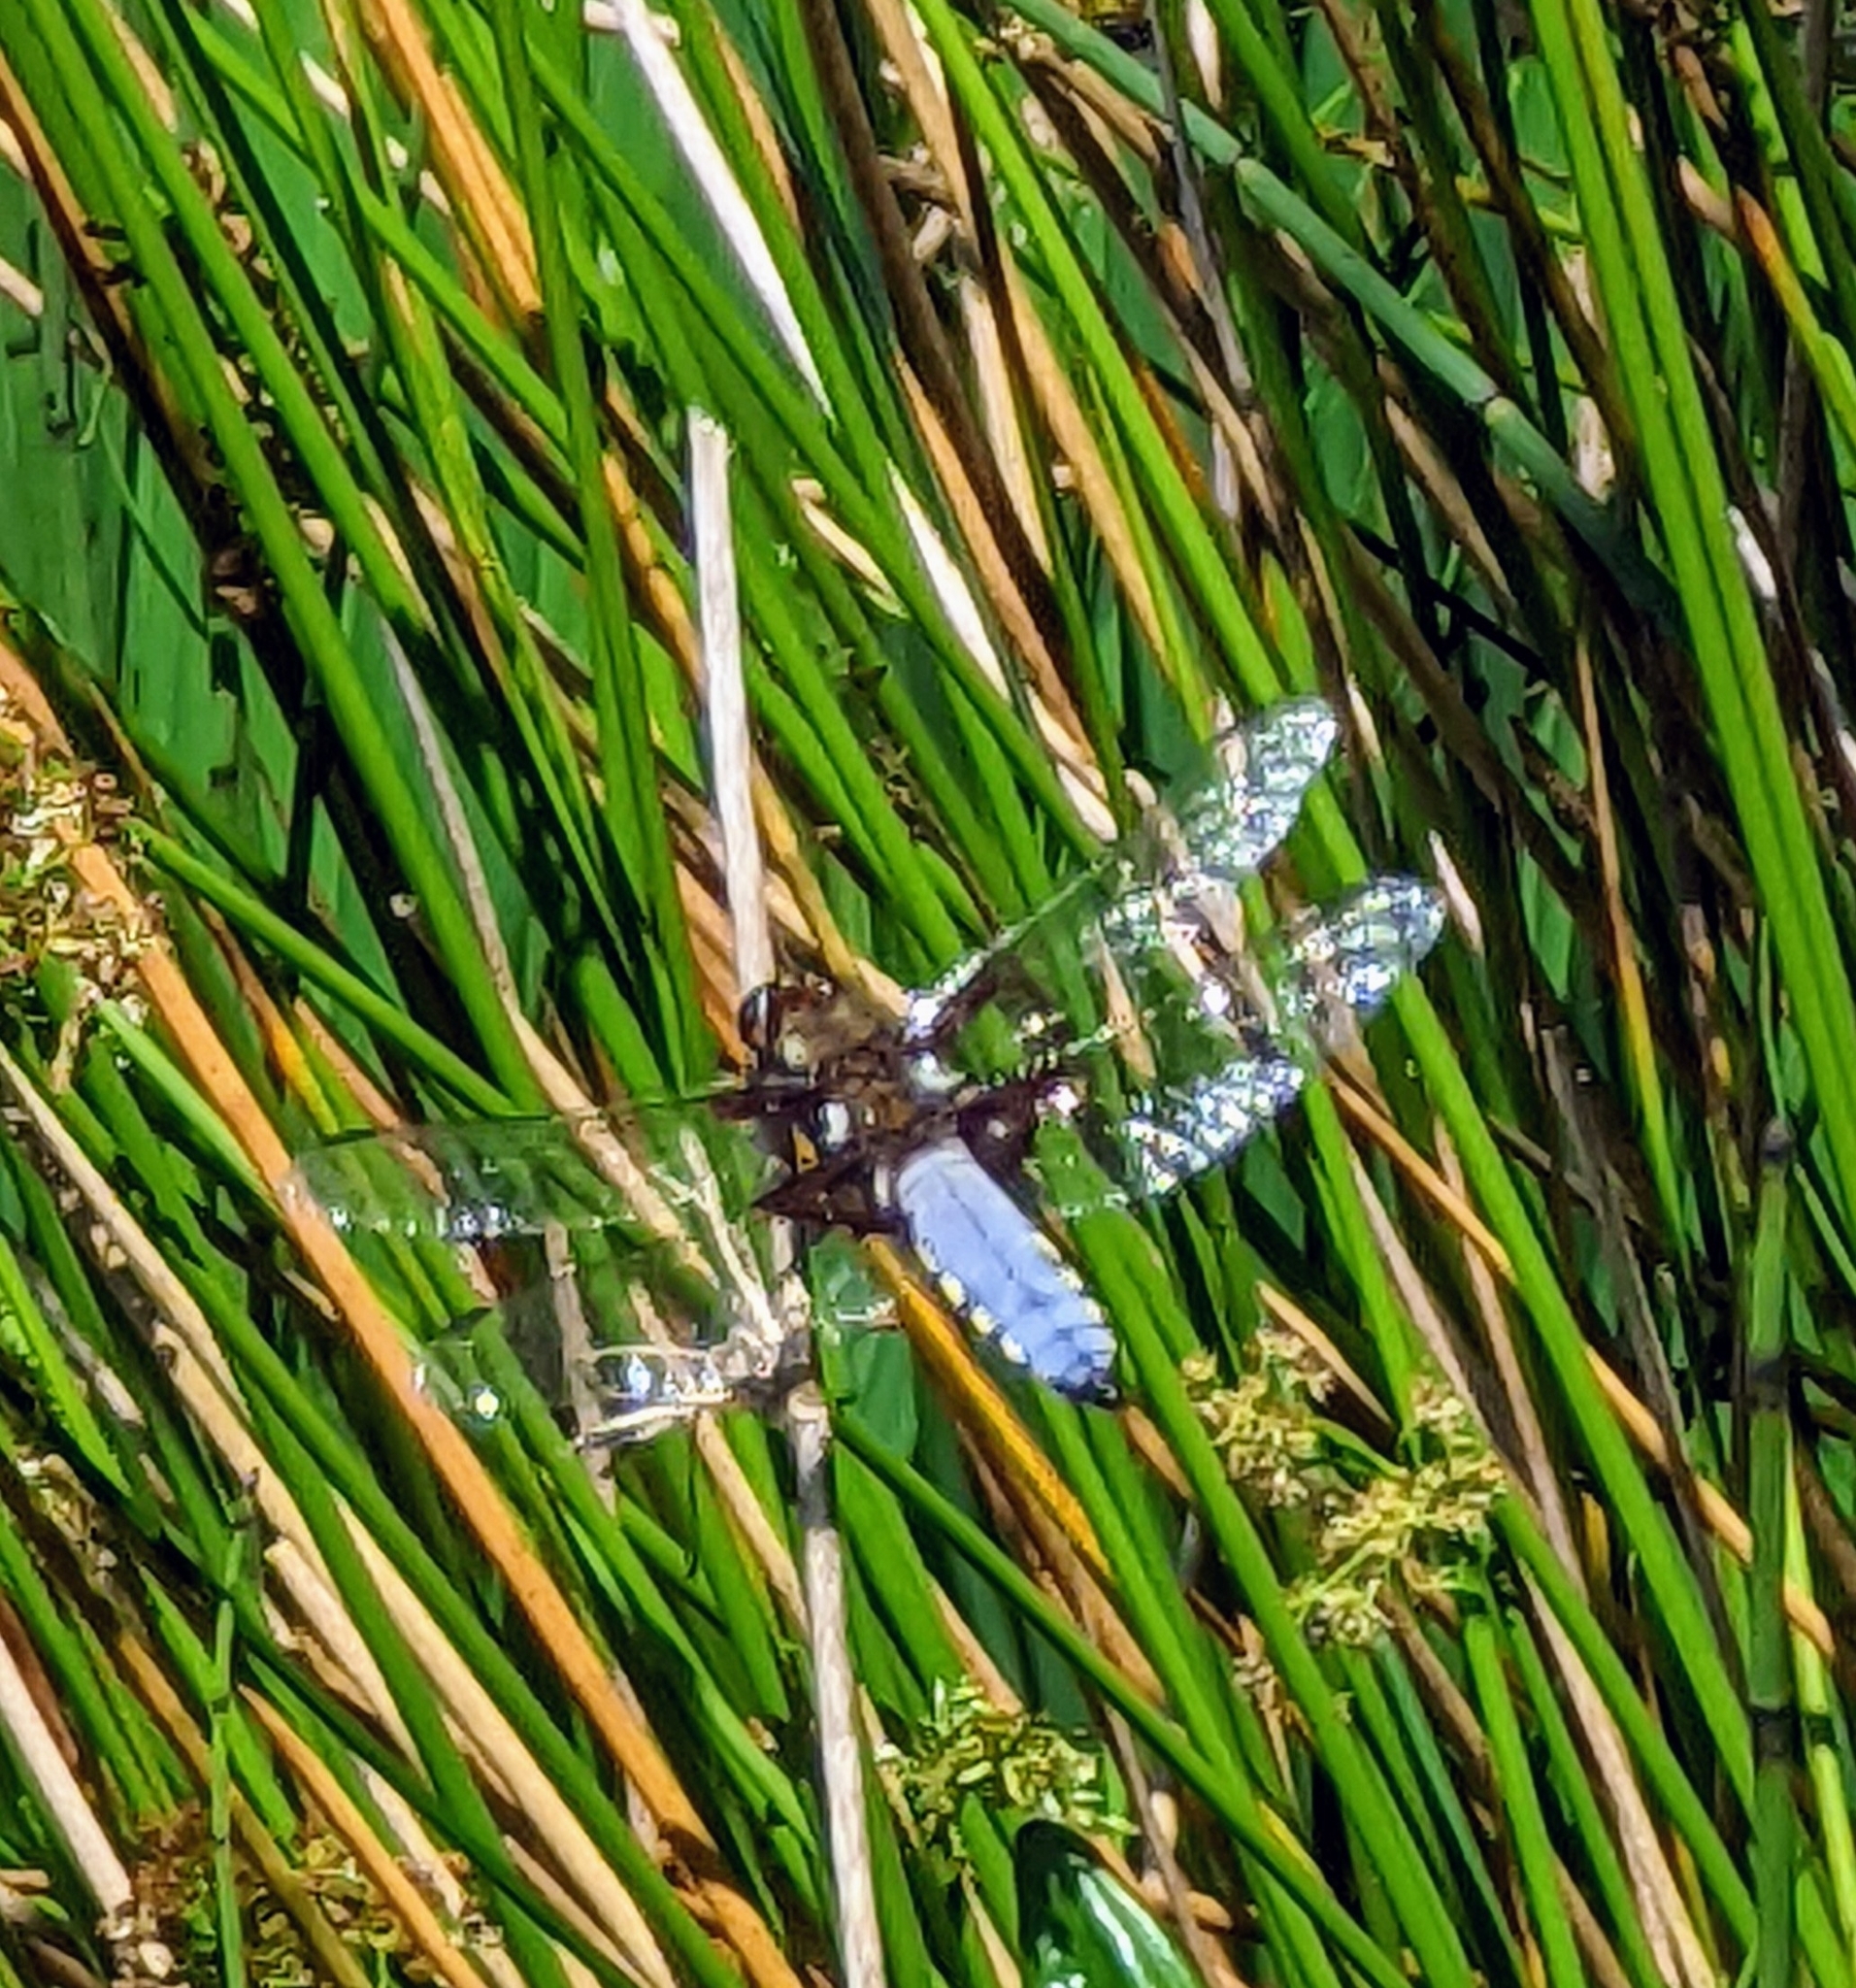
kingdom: Animalia
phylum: Arthropoda
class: Insecta
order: Odonata
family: Libellulidae
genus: Libellula
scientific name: Libellula depressa
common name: Broad-bodied chaser
